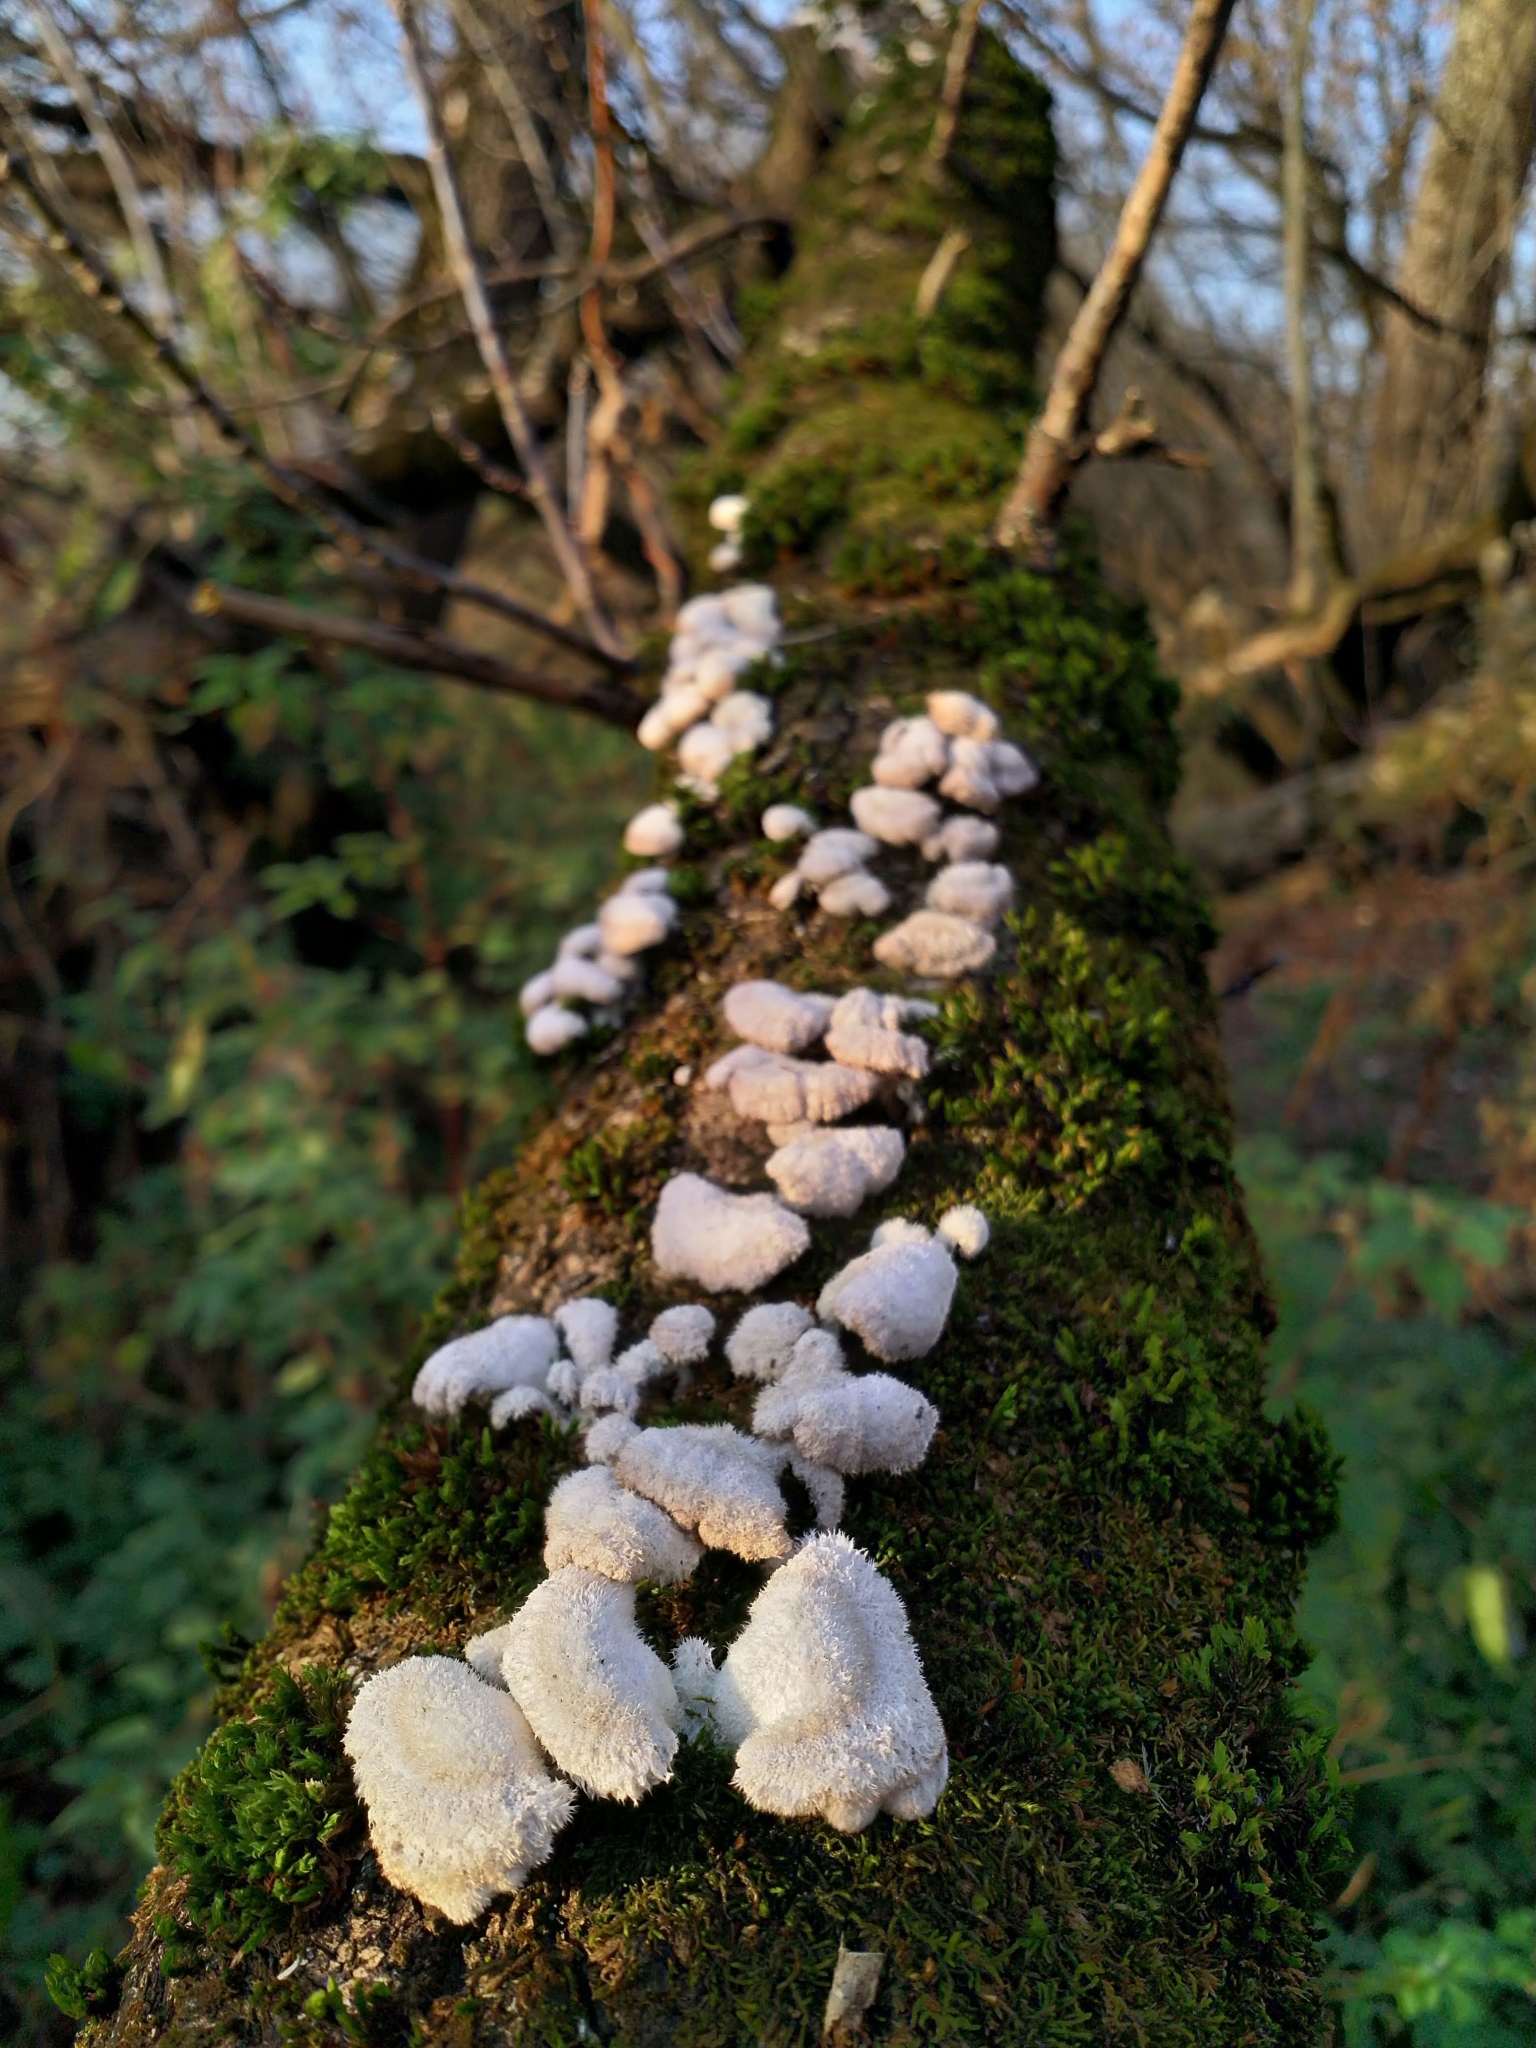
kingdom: Fungi
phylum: Basidiomycota
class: Agaricomycetes
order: Agaricales
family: Schizophyllaceae
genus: Schizophyllum
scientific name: Schizophyllum commune
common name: Common porecrust
